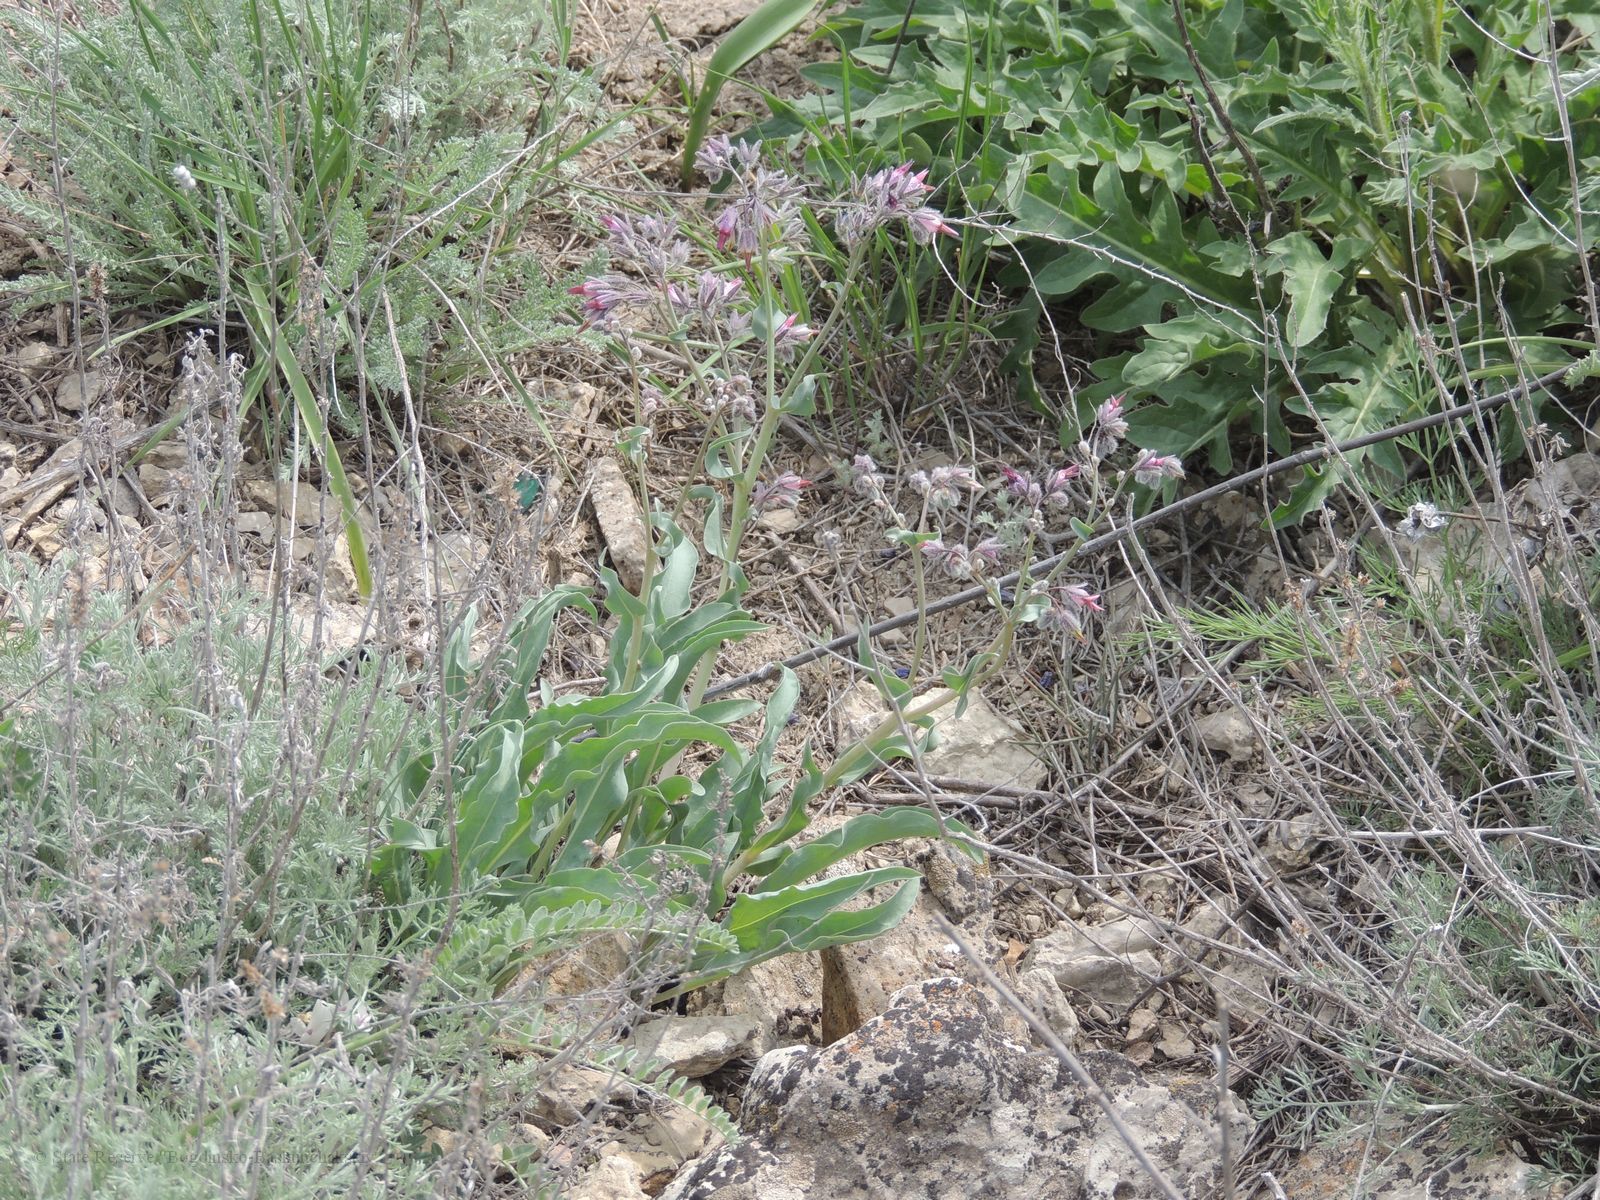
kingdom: Plantae
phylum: Tracheophyta
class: Magnoliopsida
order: Boraginales
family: Boraginaceae
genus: Rindera
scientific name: Rindera tetraspis
